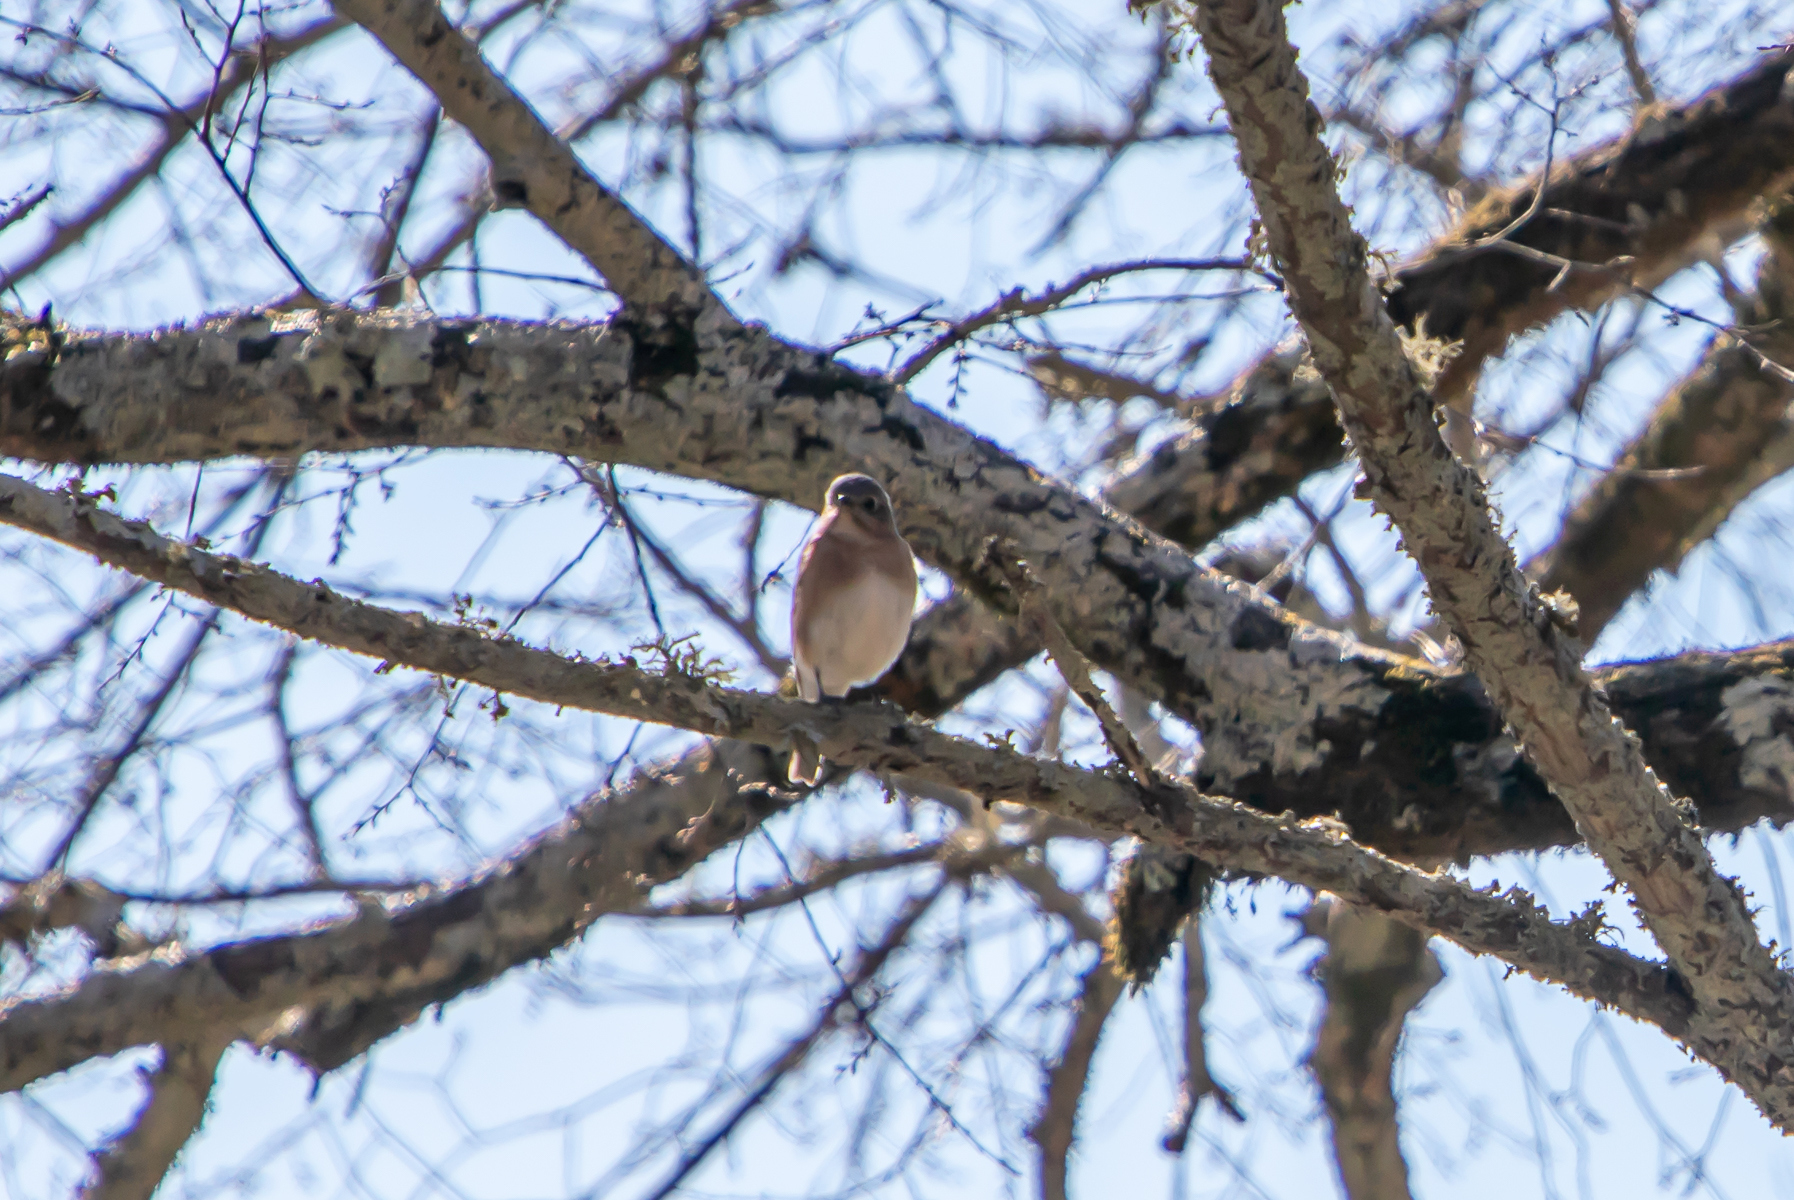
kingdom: Animalia
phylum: Chordata
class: Aves
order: Passeriformes
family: Turdidae
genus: Sialia
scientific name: Sialia sialis
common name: Eastern bluebird
